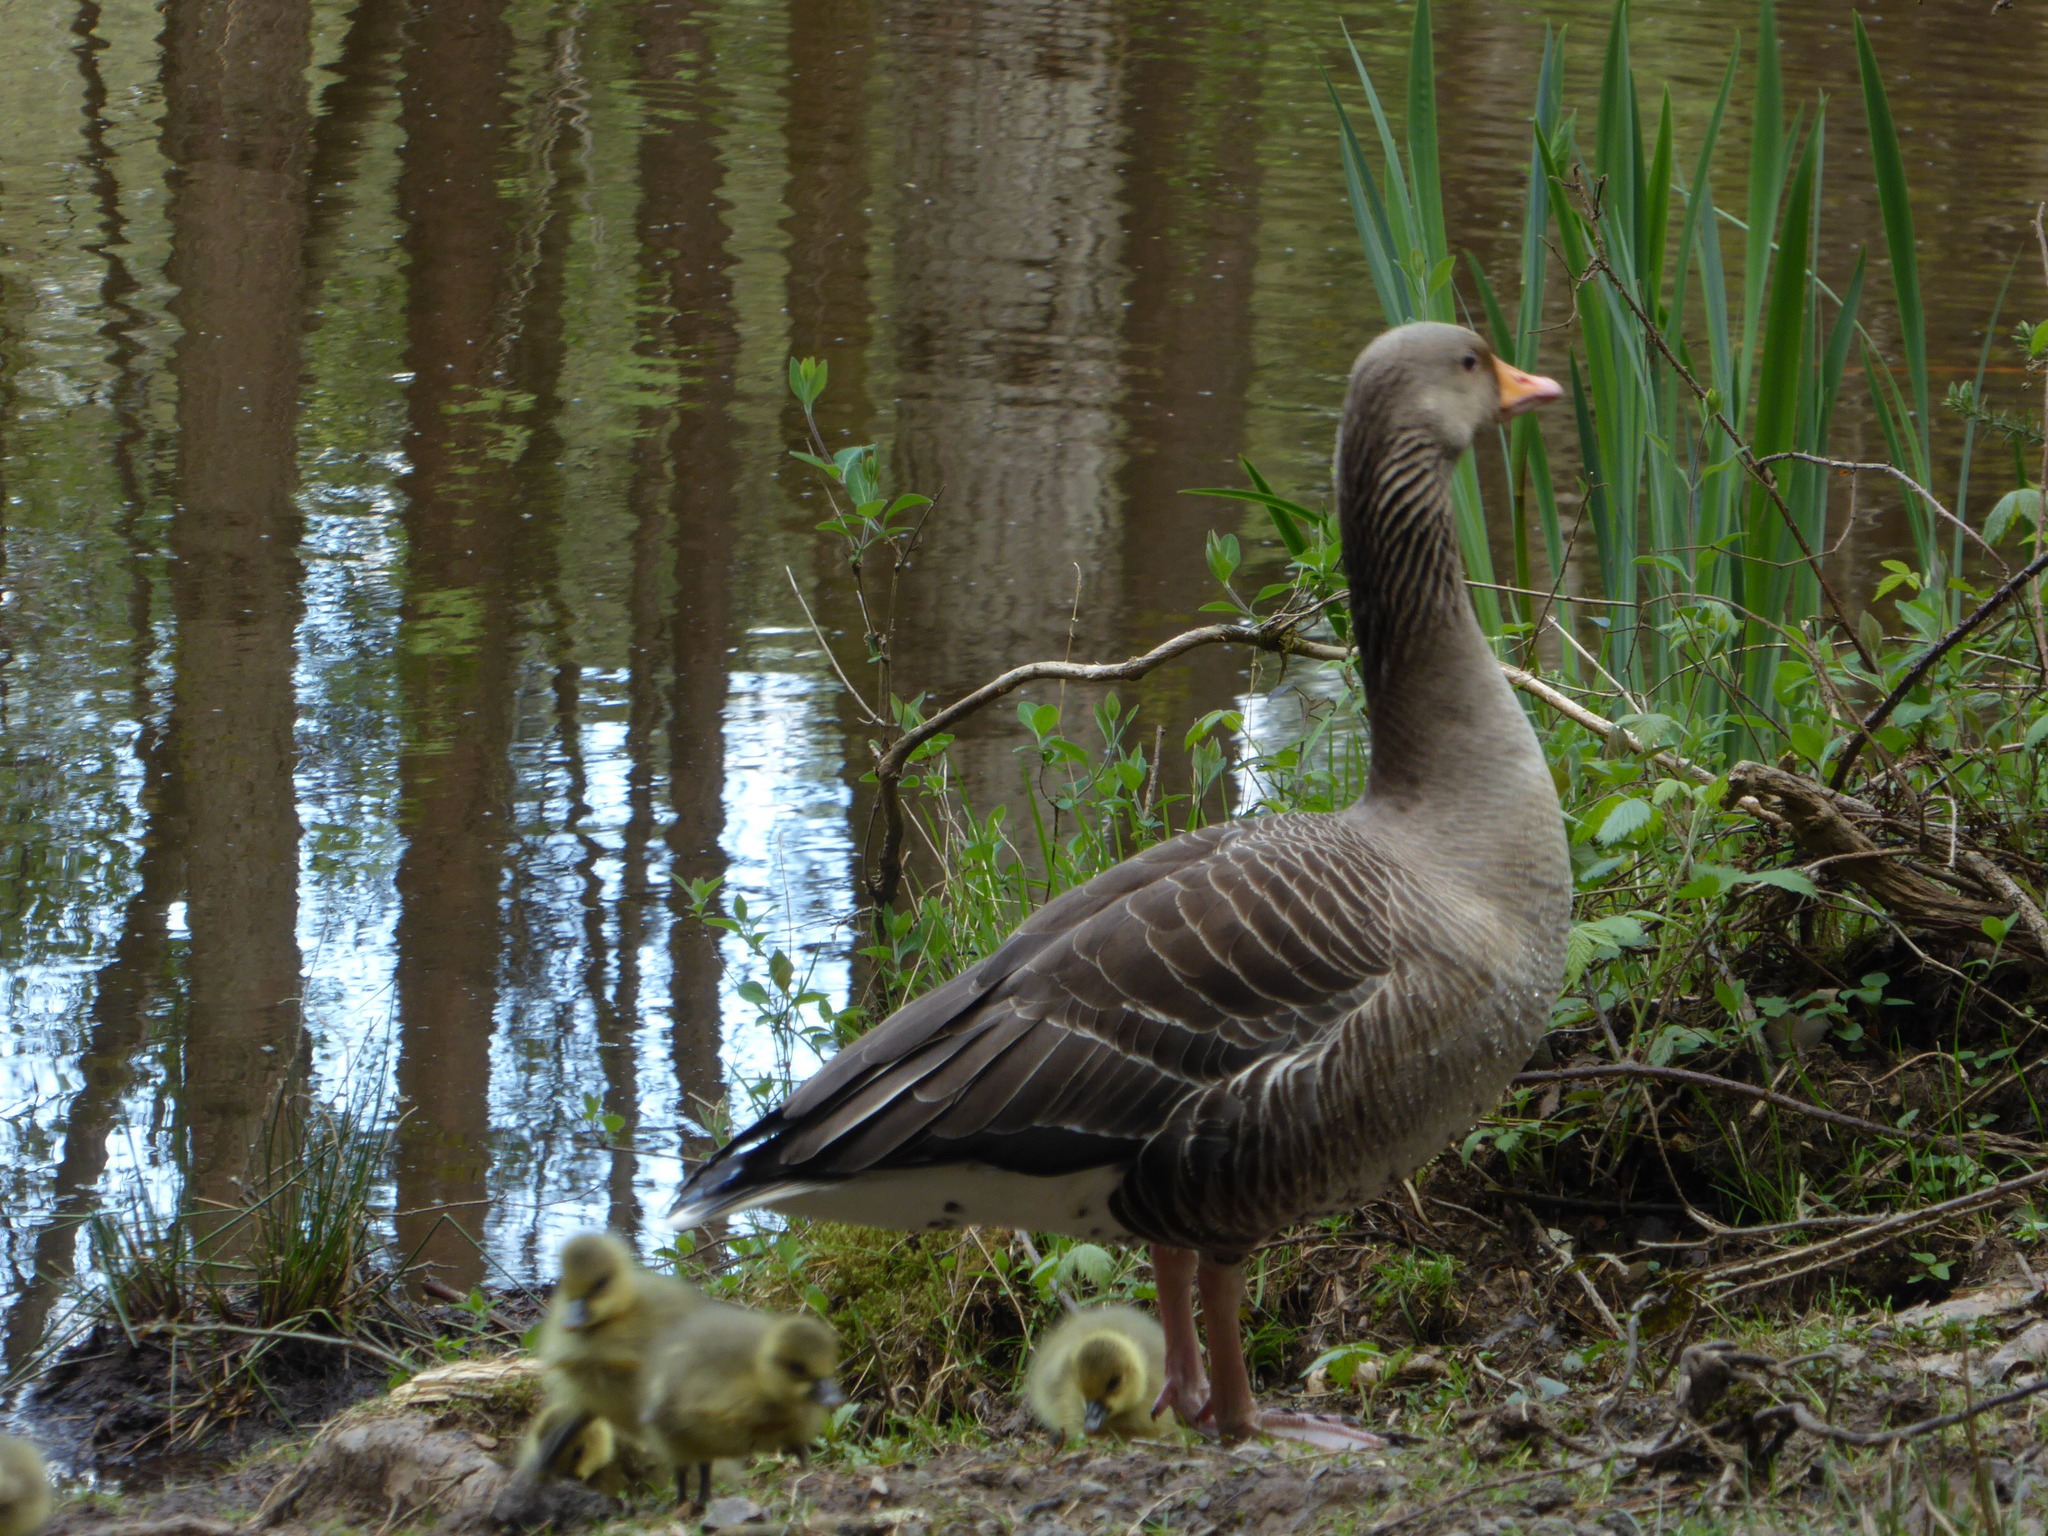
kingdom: Animalia
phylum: Chordata
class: Aves
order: Anseriformes
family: Anatidae
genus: Anser
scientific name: Anser anser
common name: Greylag goose
